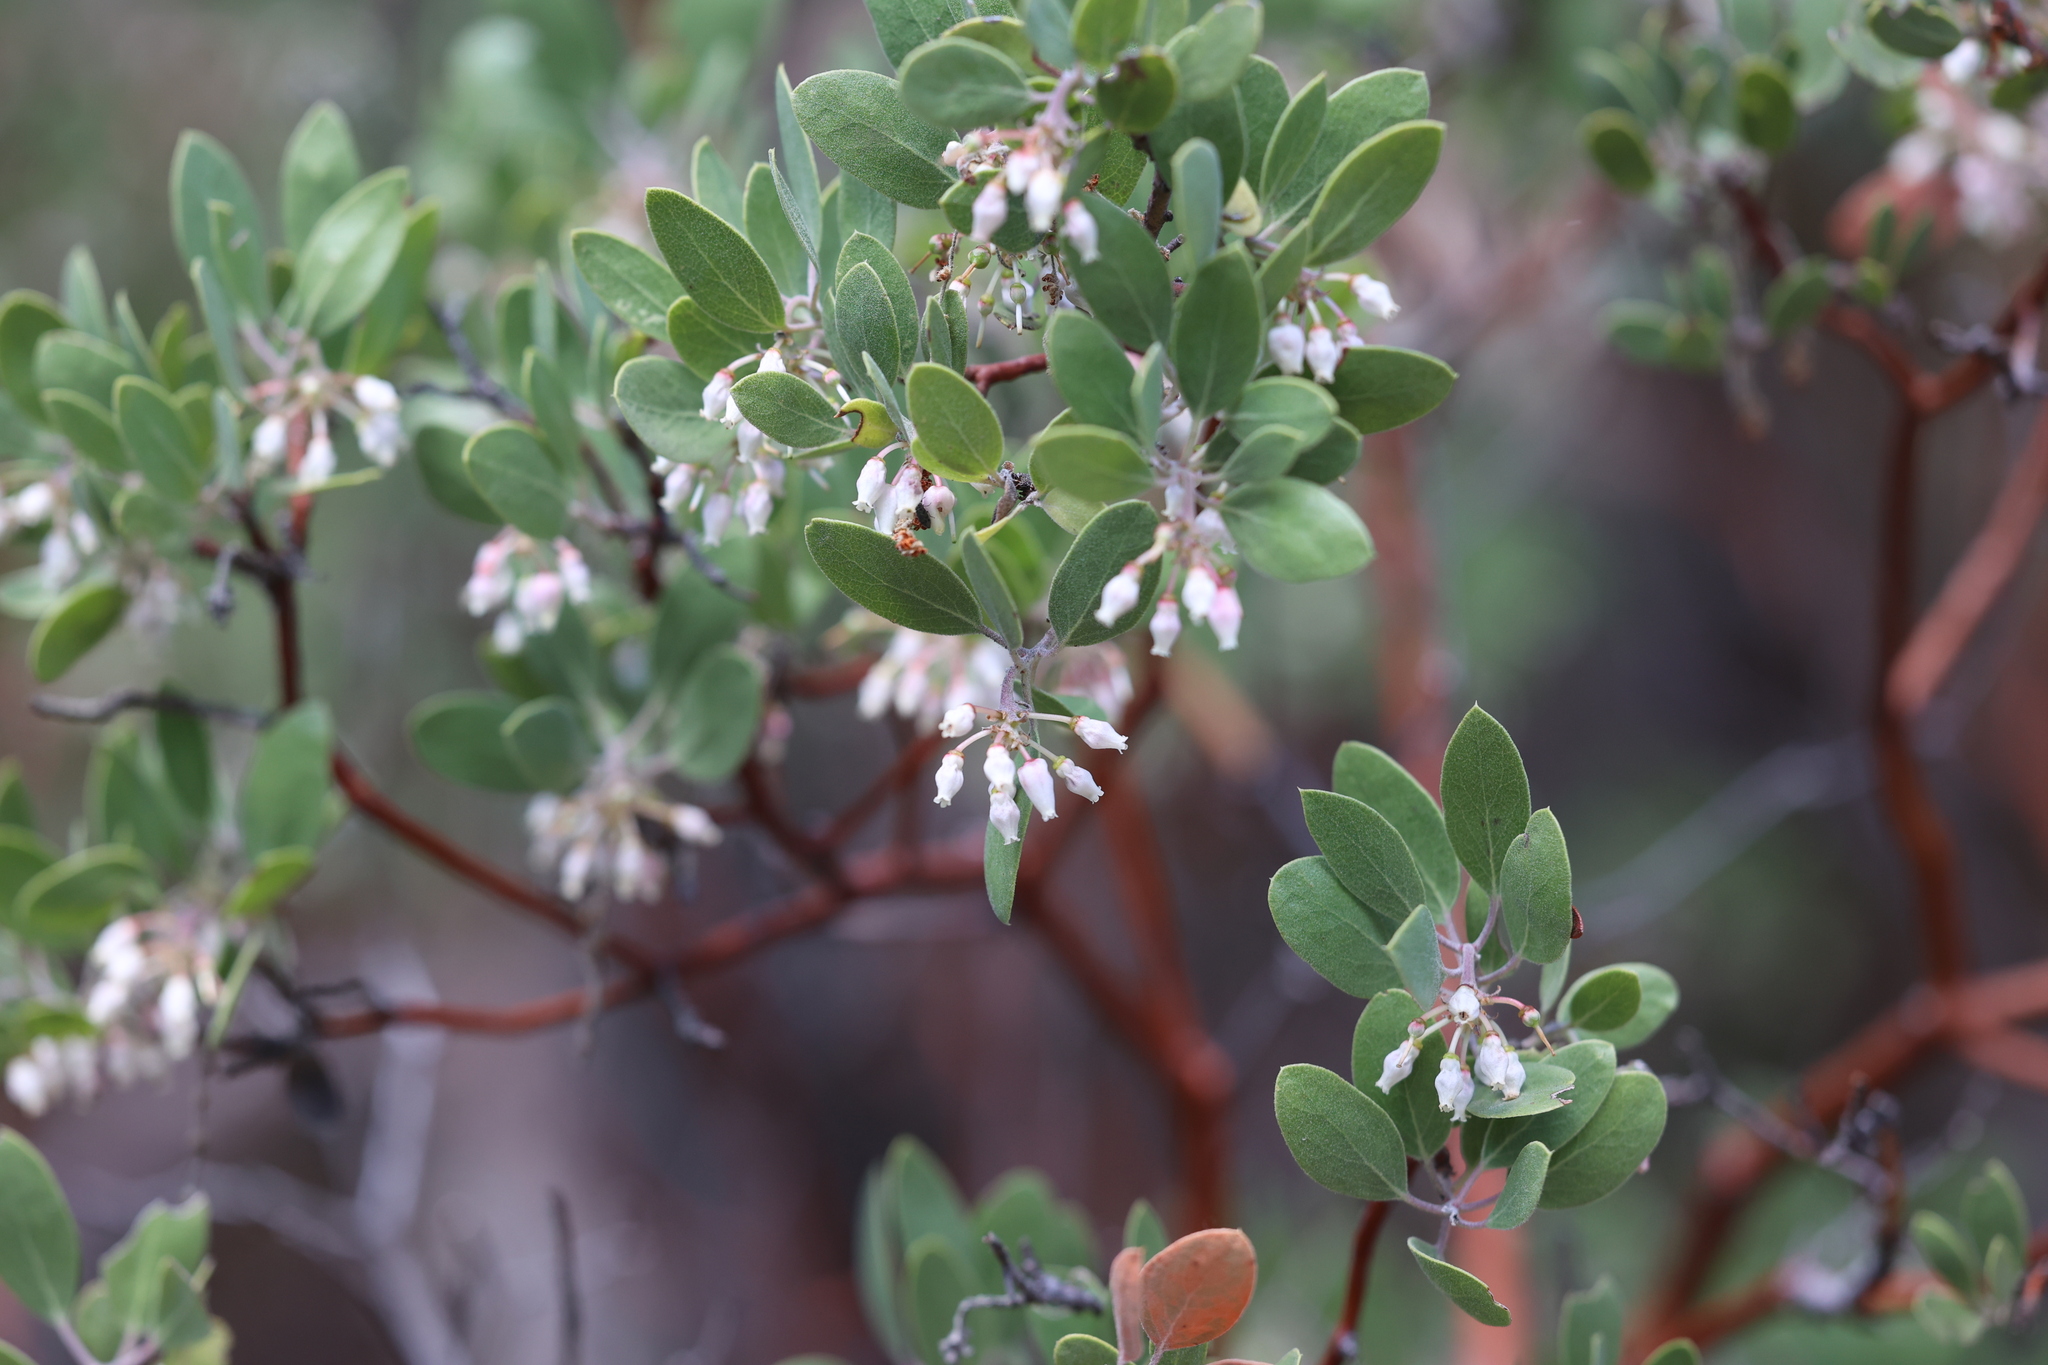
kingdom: Plantae
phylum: Tracheophyta
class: Magnoliopsida
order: Ericales
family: Ericaceae
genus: Arctostaphylos
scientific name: Arctostaphylos pungens
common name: Mexican manzanita
